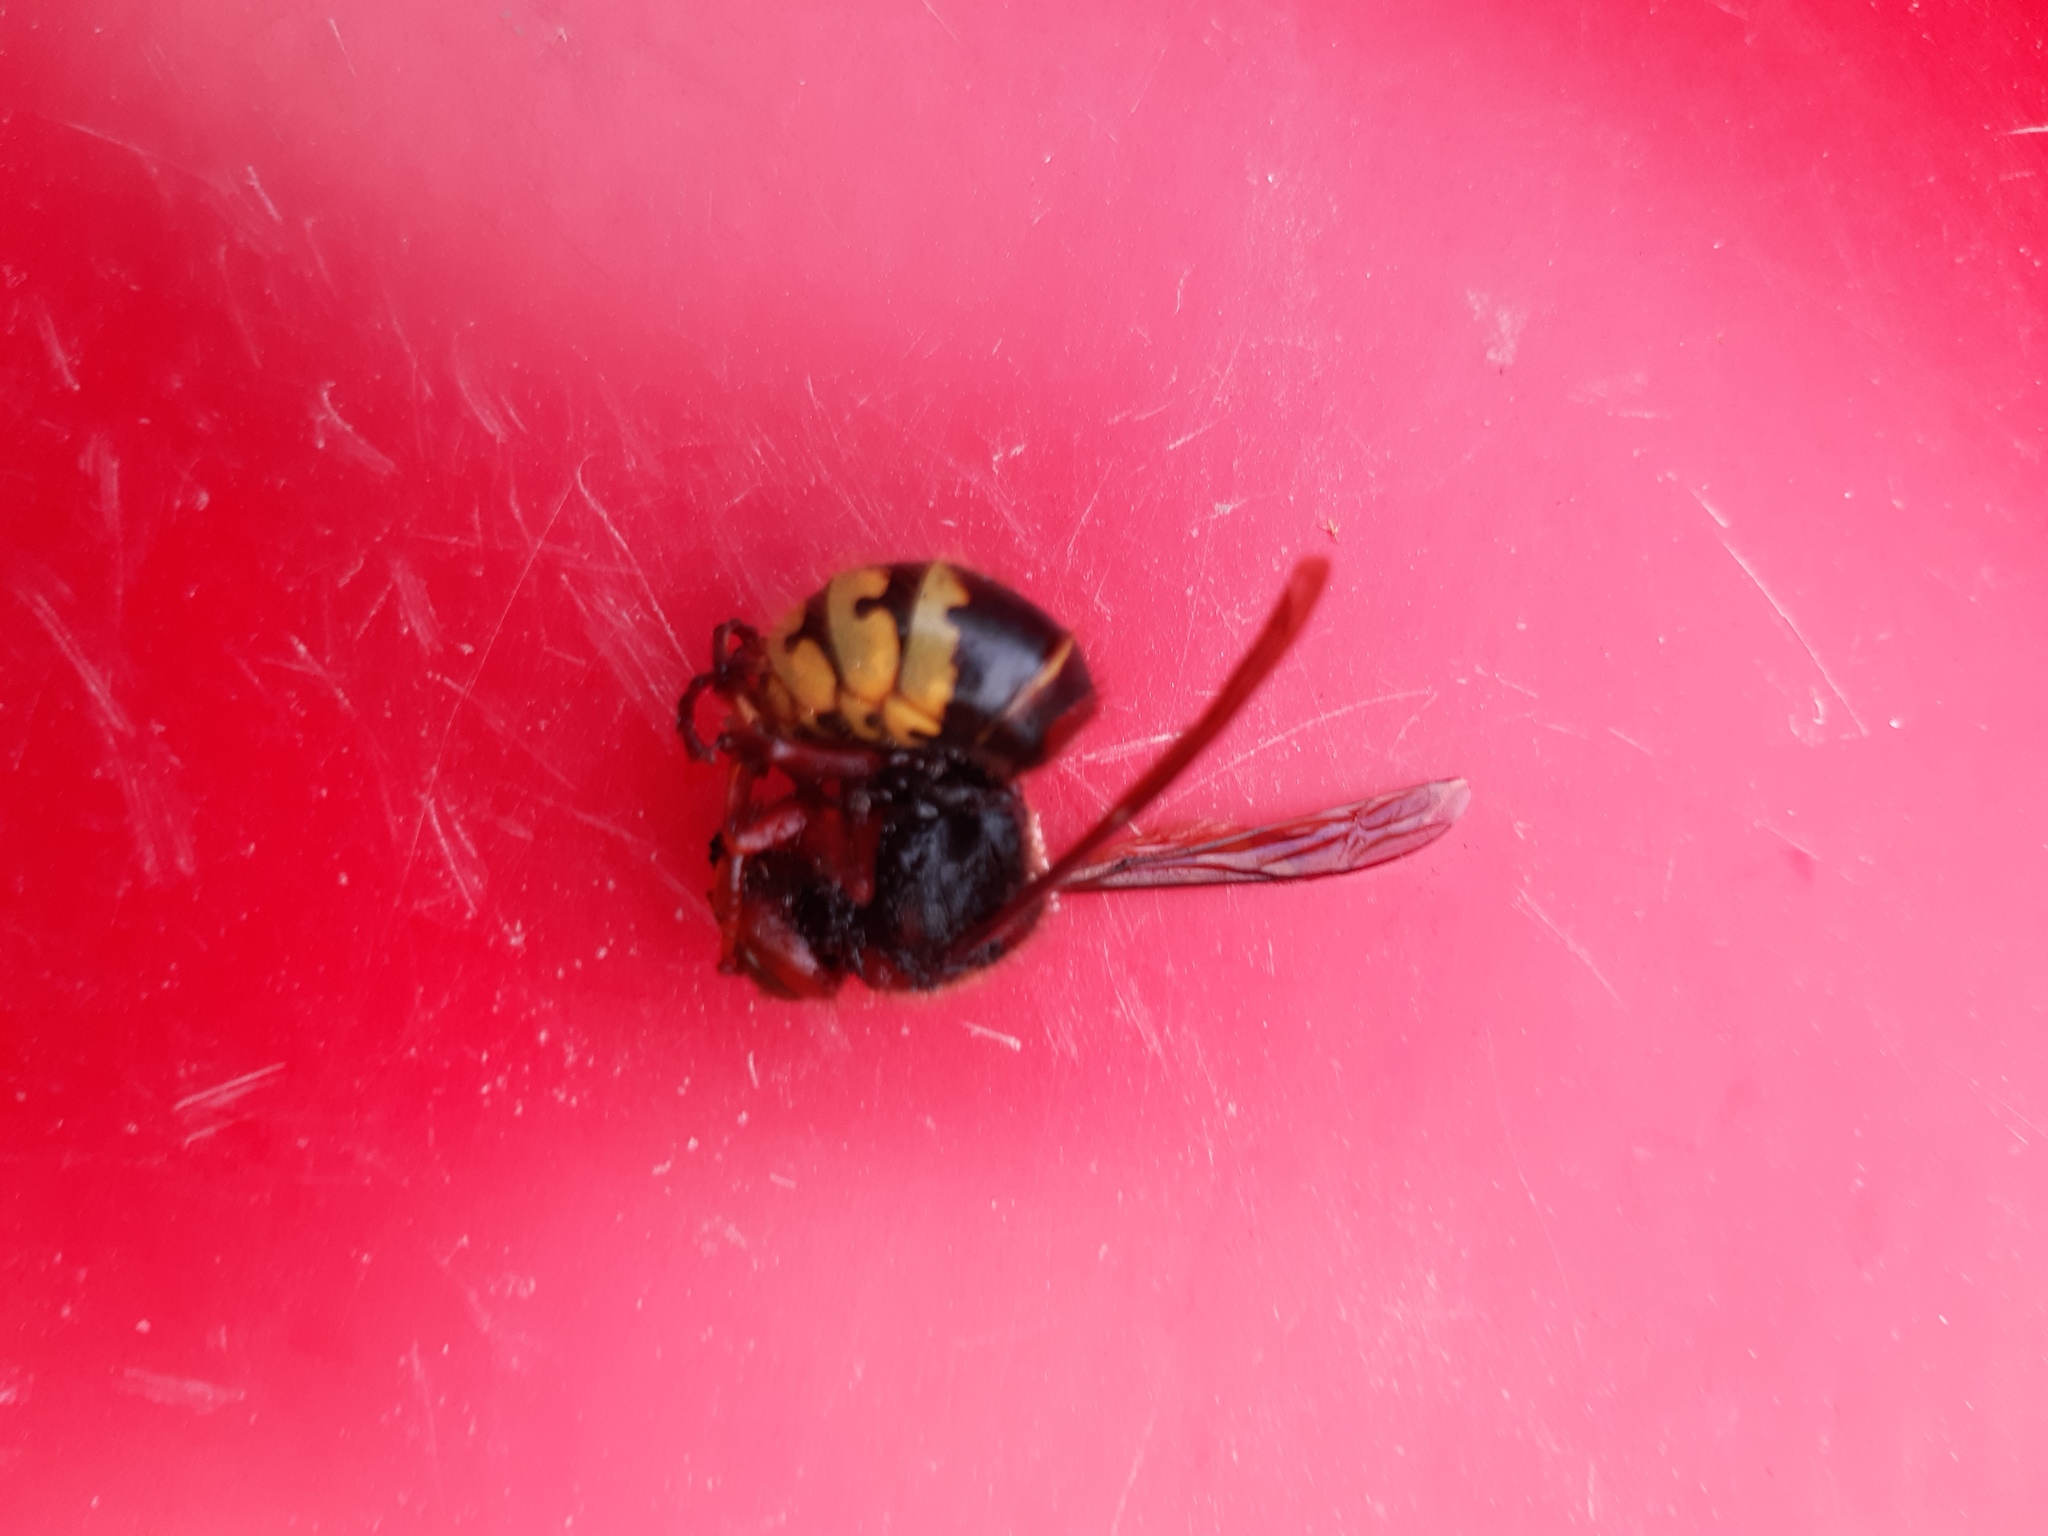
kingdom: Animalia
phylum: Arthropoda
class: Insecta
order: Hymenoptera
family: Vespidae
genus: Vespa
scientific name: Vespa crabro
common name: Hornet
